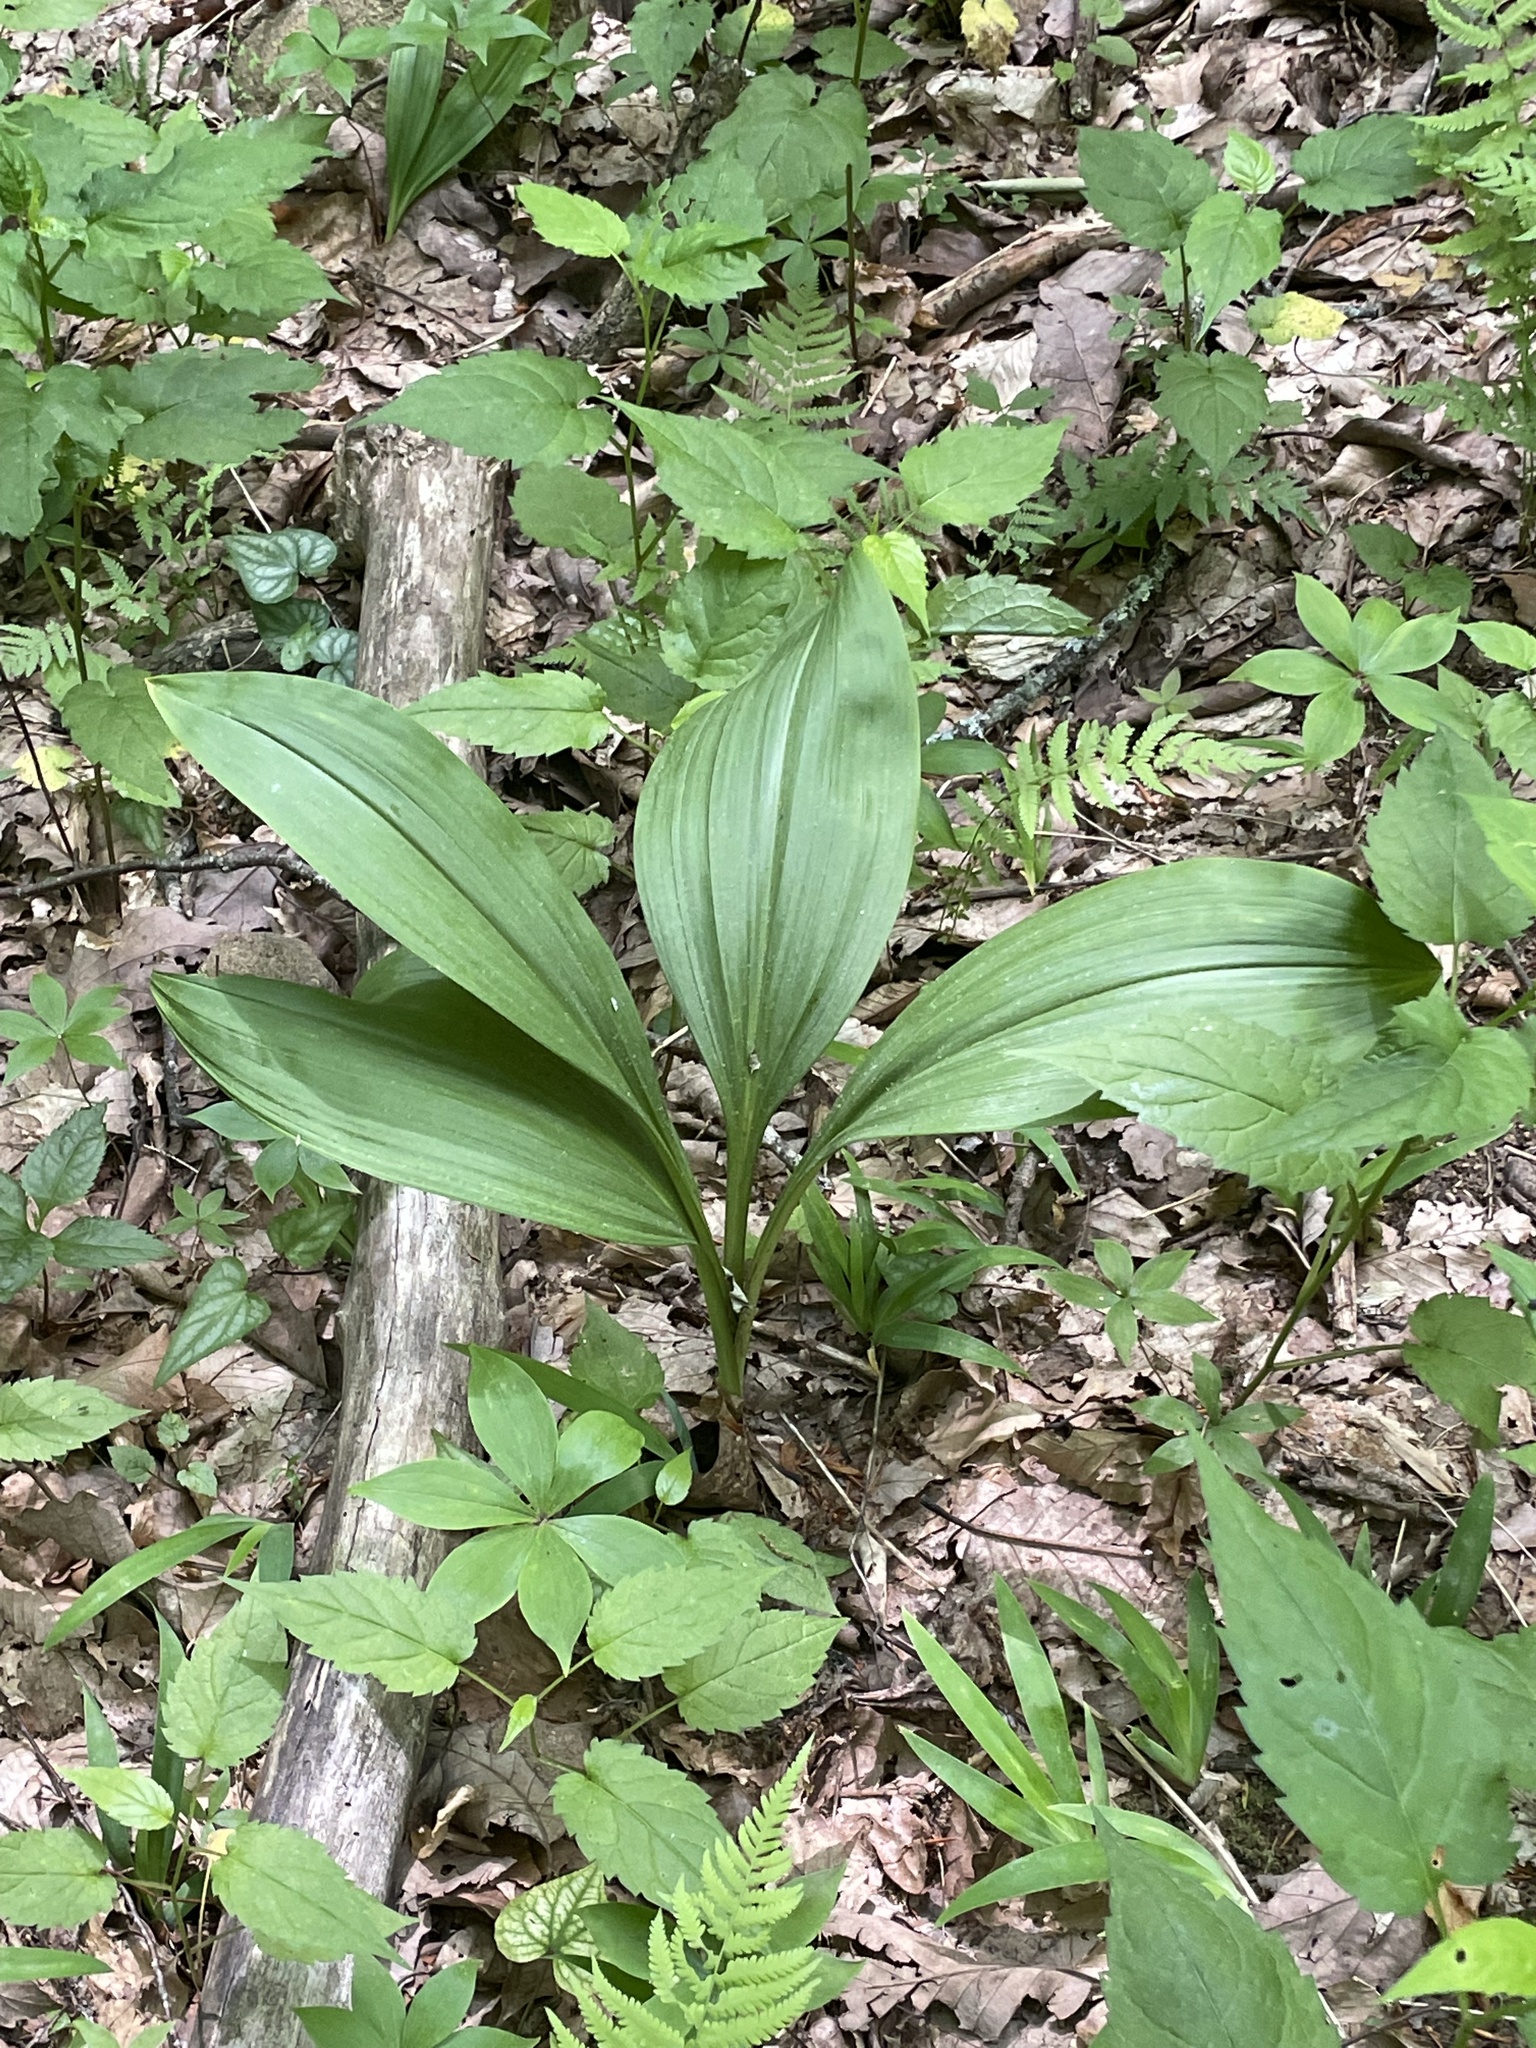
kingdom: Plantae
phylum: Tracheophyta
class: Liliopsida
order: Liliales
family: Melanthiaceae
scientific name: Melanthiaceae
